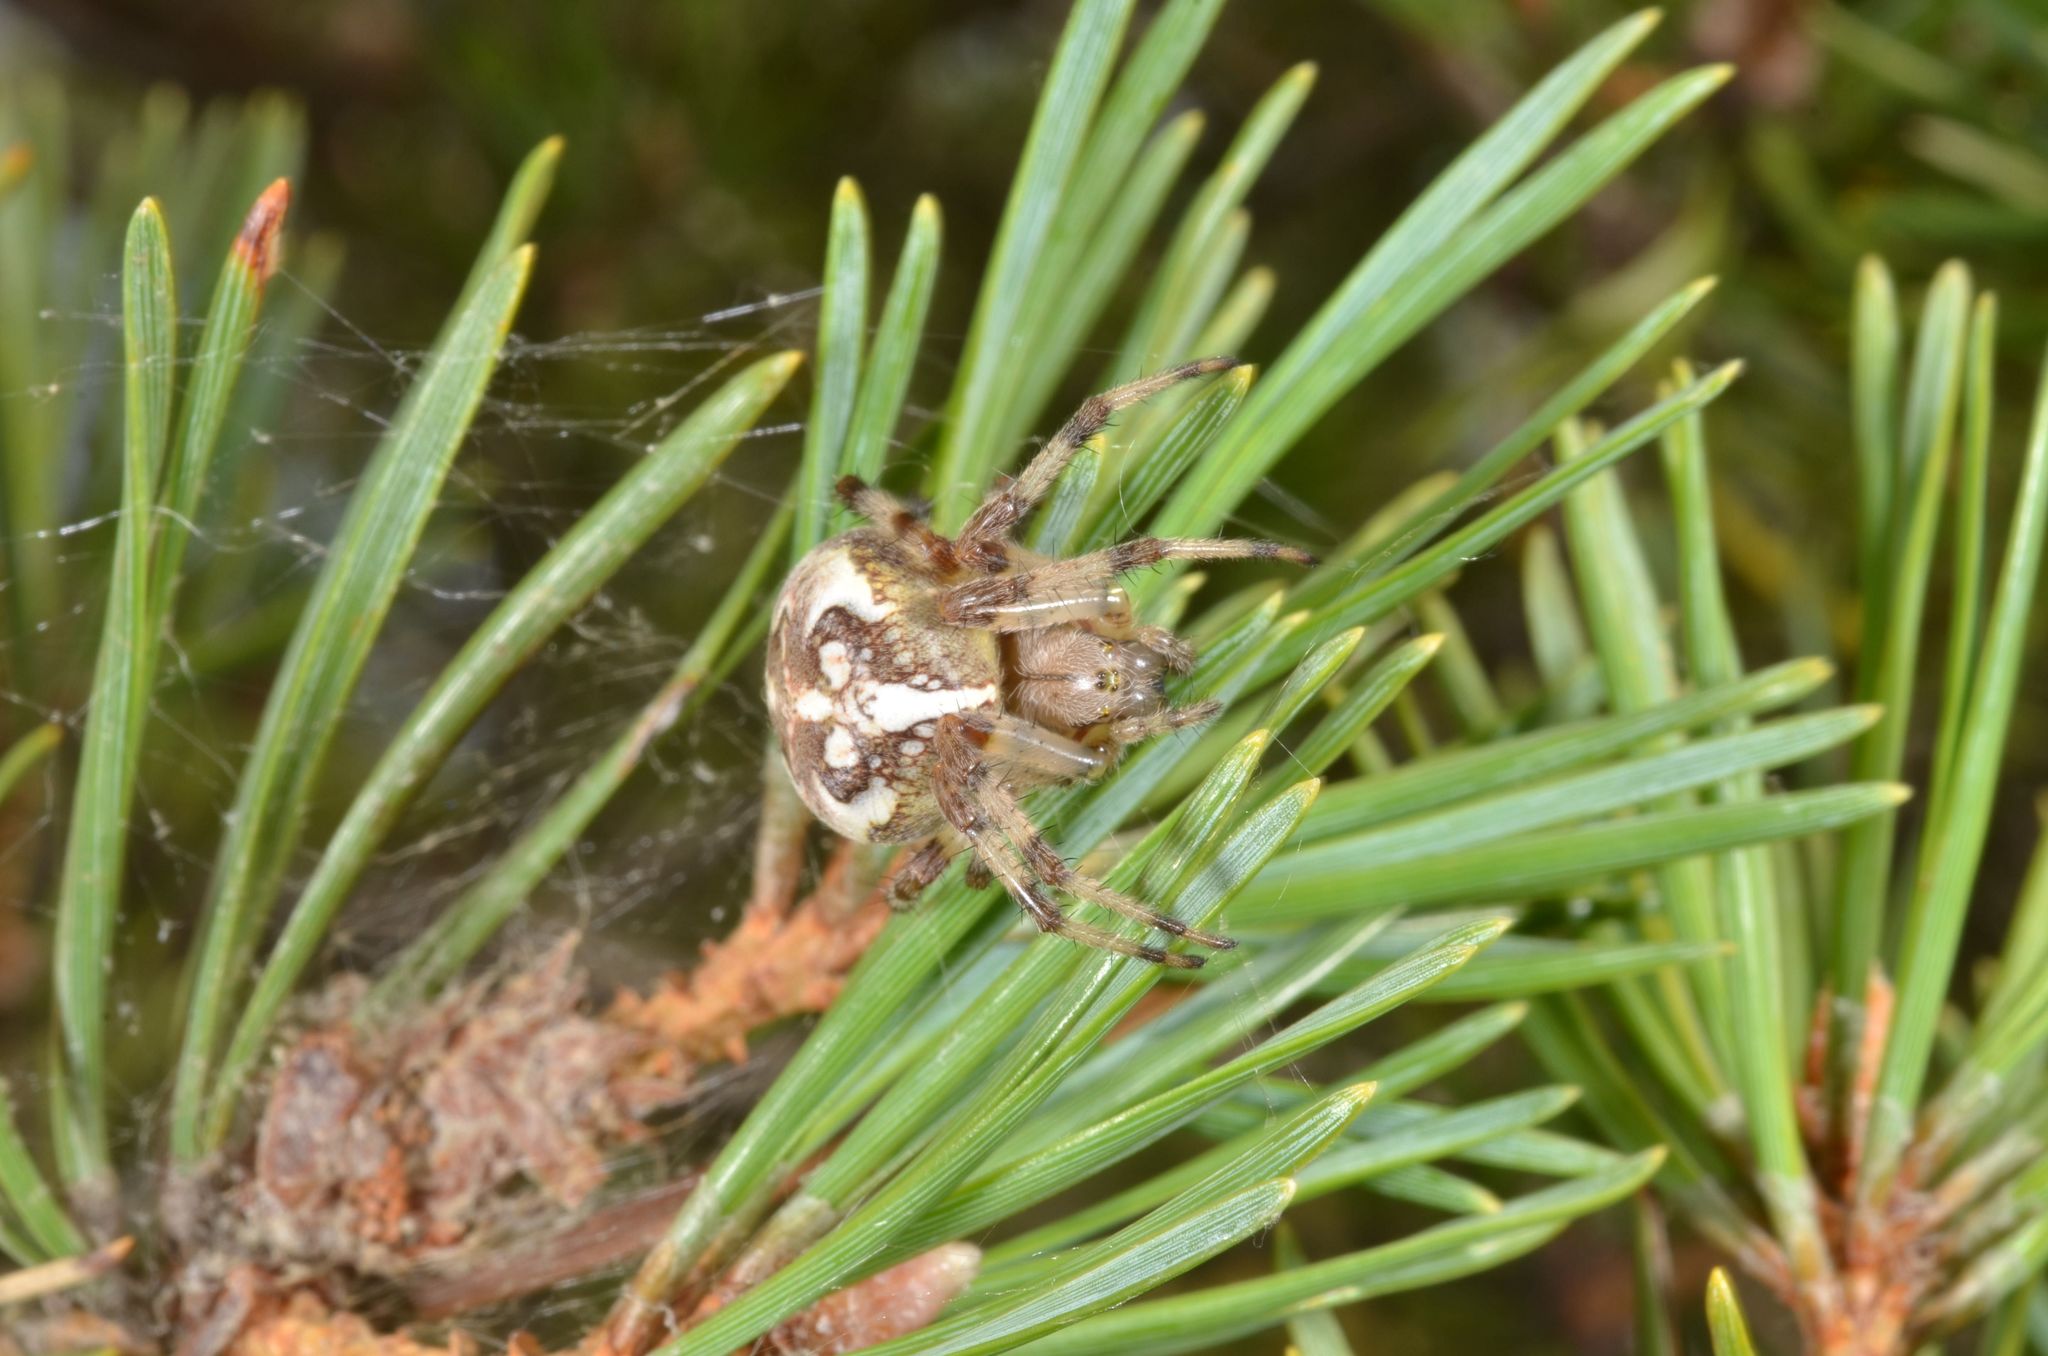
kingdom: Animalia
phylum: Arthropoda
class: Arachnida
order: Araneae
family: Araneidae
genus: Araneus
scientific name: Araneus marmoreus
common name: Marbled orbweaver
